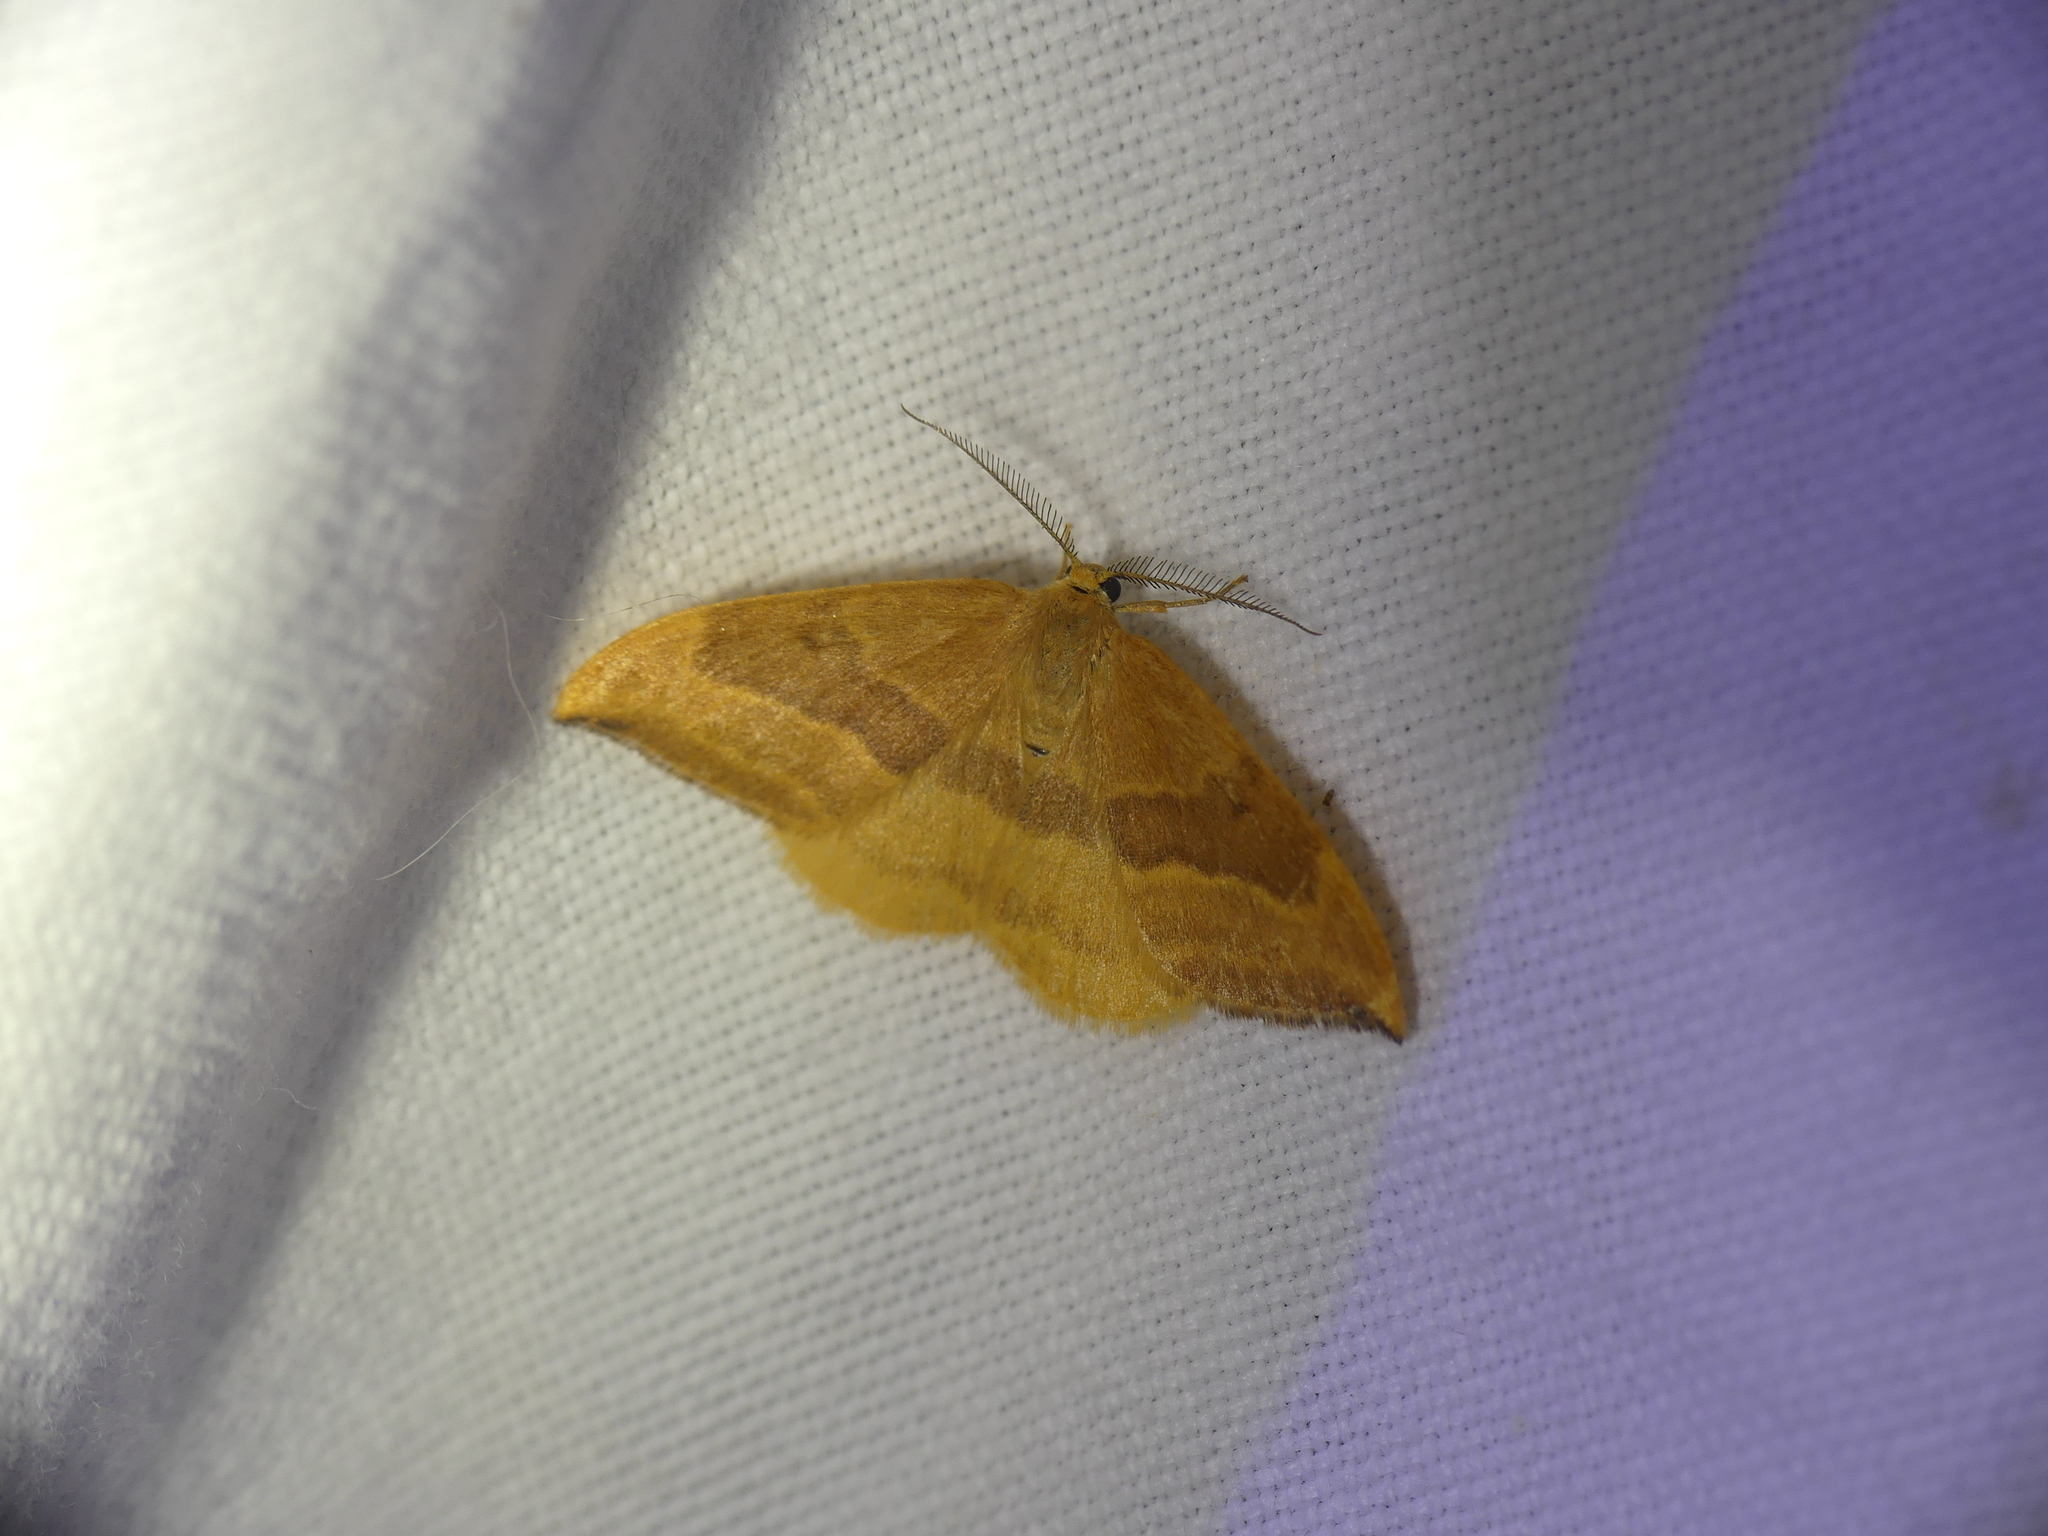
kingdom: Animalia
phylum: Arthropoda
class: Insecta
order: Lepidoptera
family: Drepanidae
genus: Watsonalla
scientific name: Watsonalla cultraria
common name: Barred hook-tip
